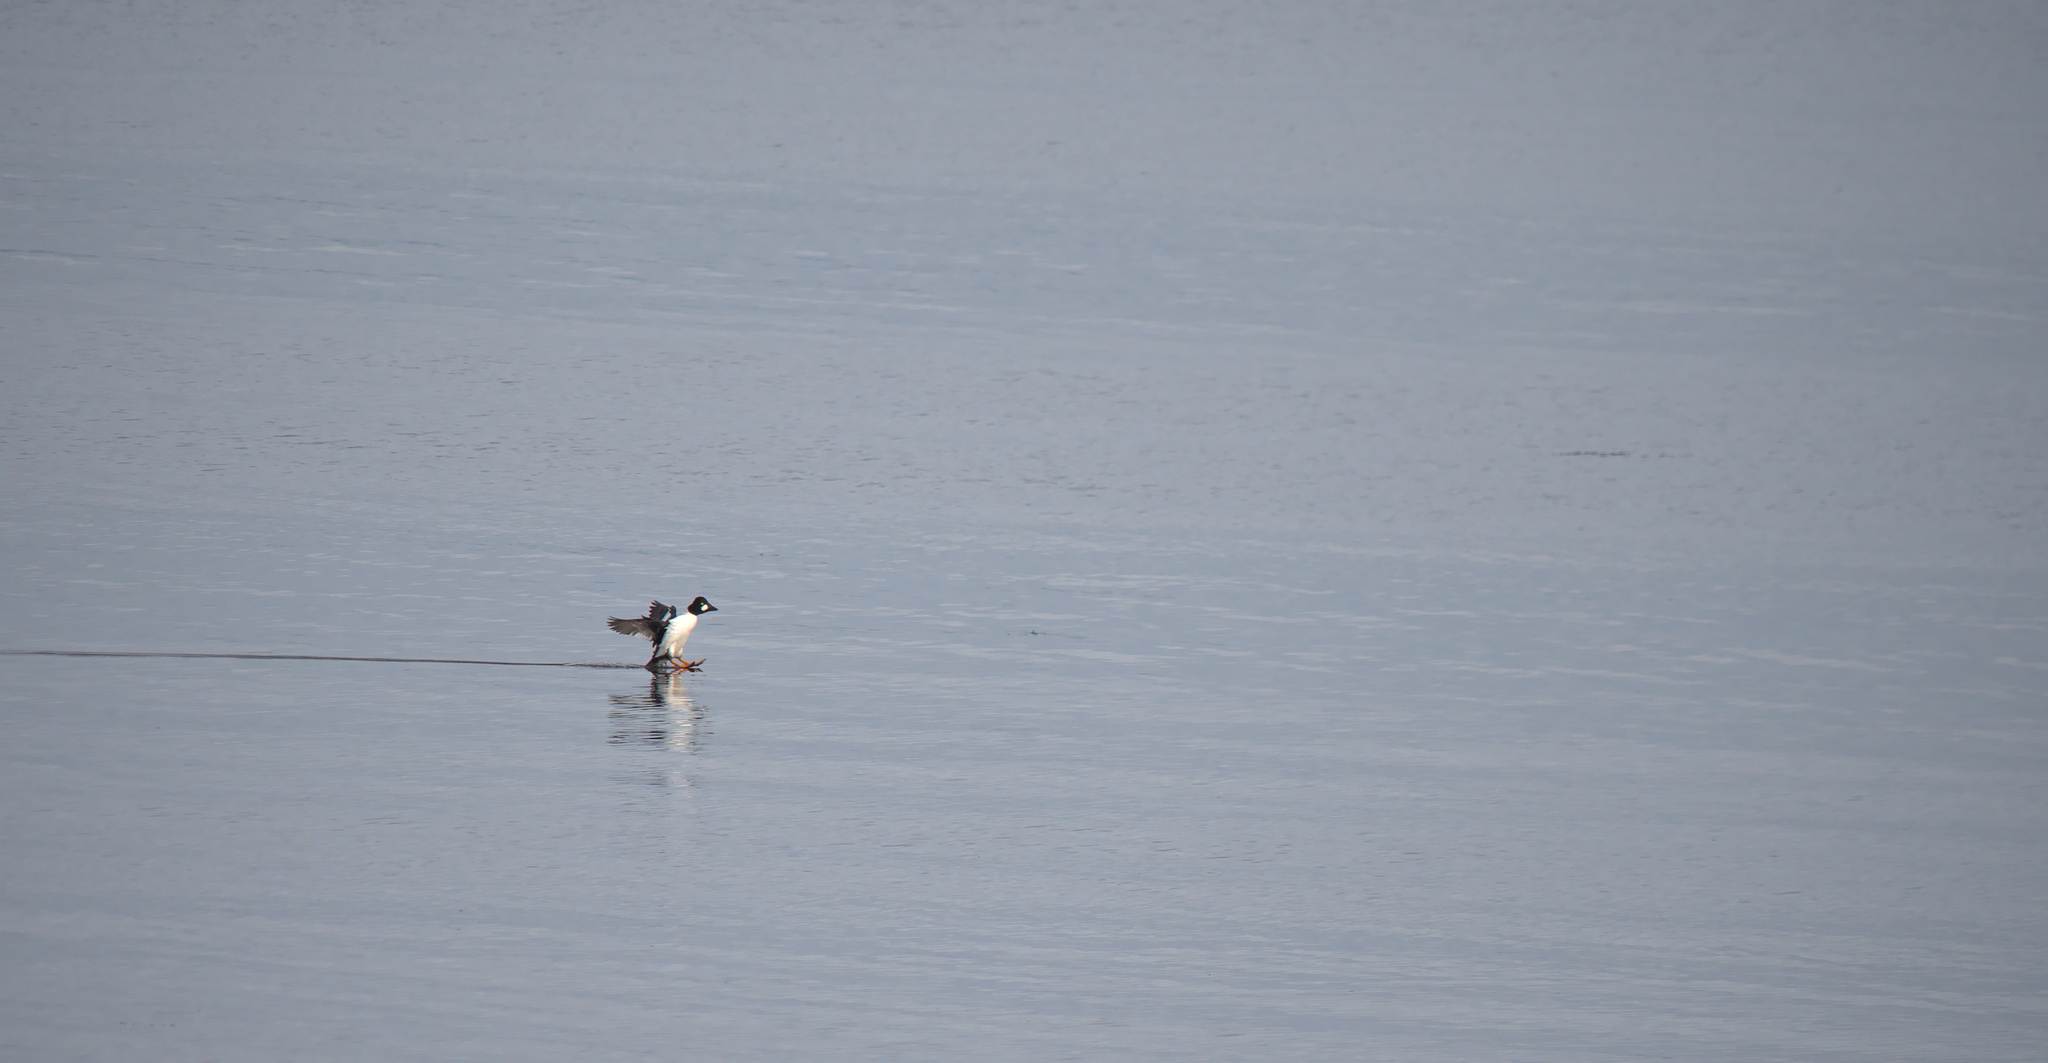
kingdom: Animalia
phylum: Chordata
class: Aves
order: Anseriformes
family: Anatidae
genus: Bucephala
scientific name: Bucephala clangula
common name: Common goldeneye
